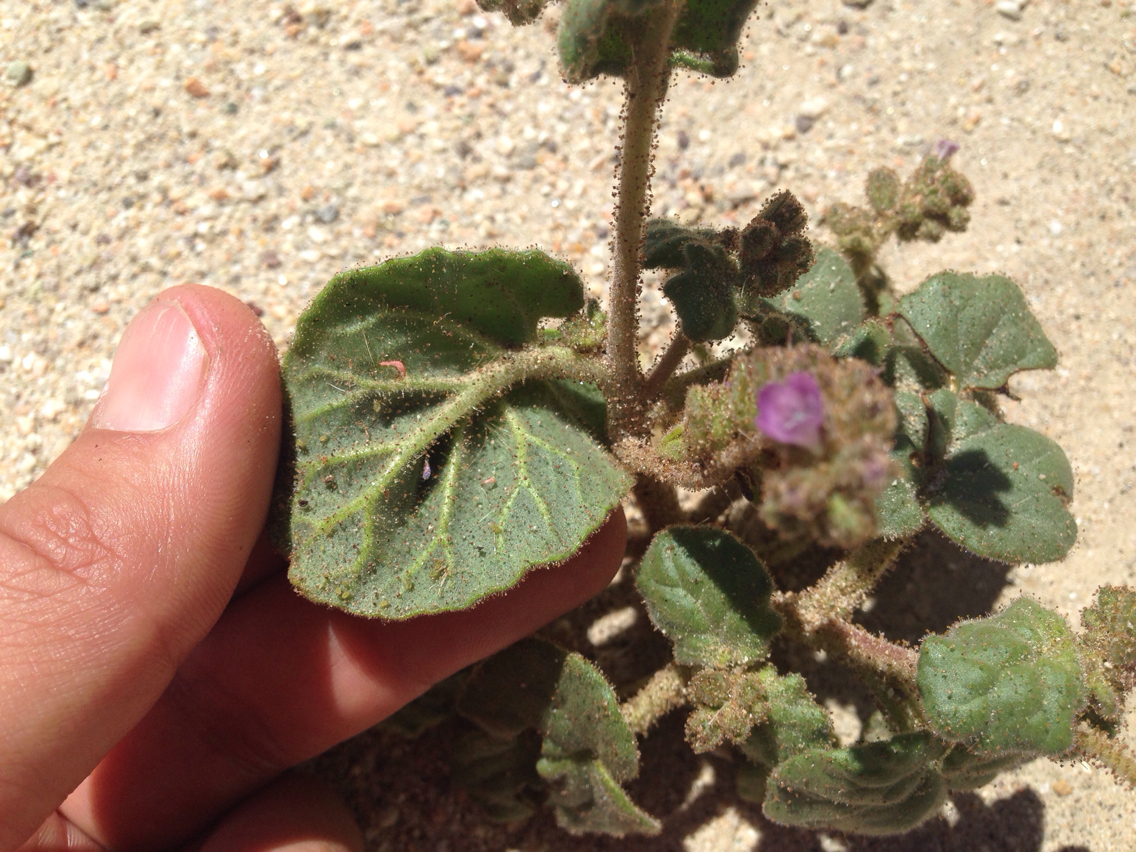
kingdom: Plantae
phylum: Tracheophyta
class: Magnoliopsida
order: Boraginales
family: Hydrophyllaceae
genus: Phacelia
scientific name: Phacelia pachyphylla
